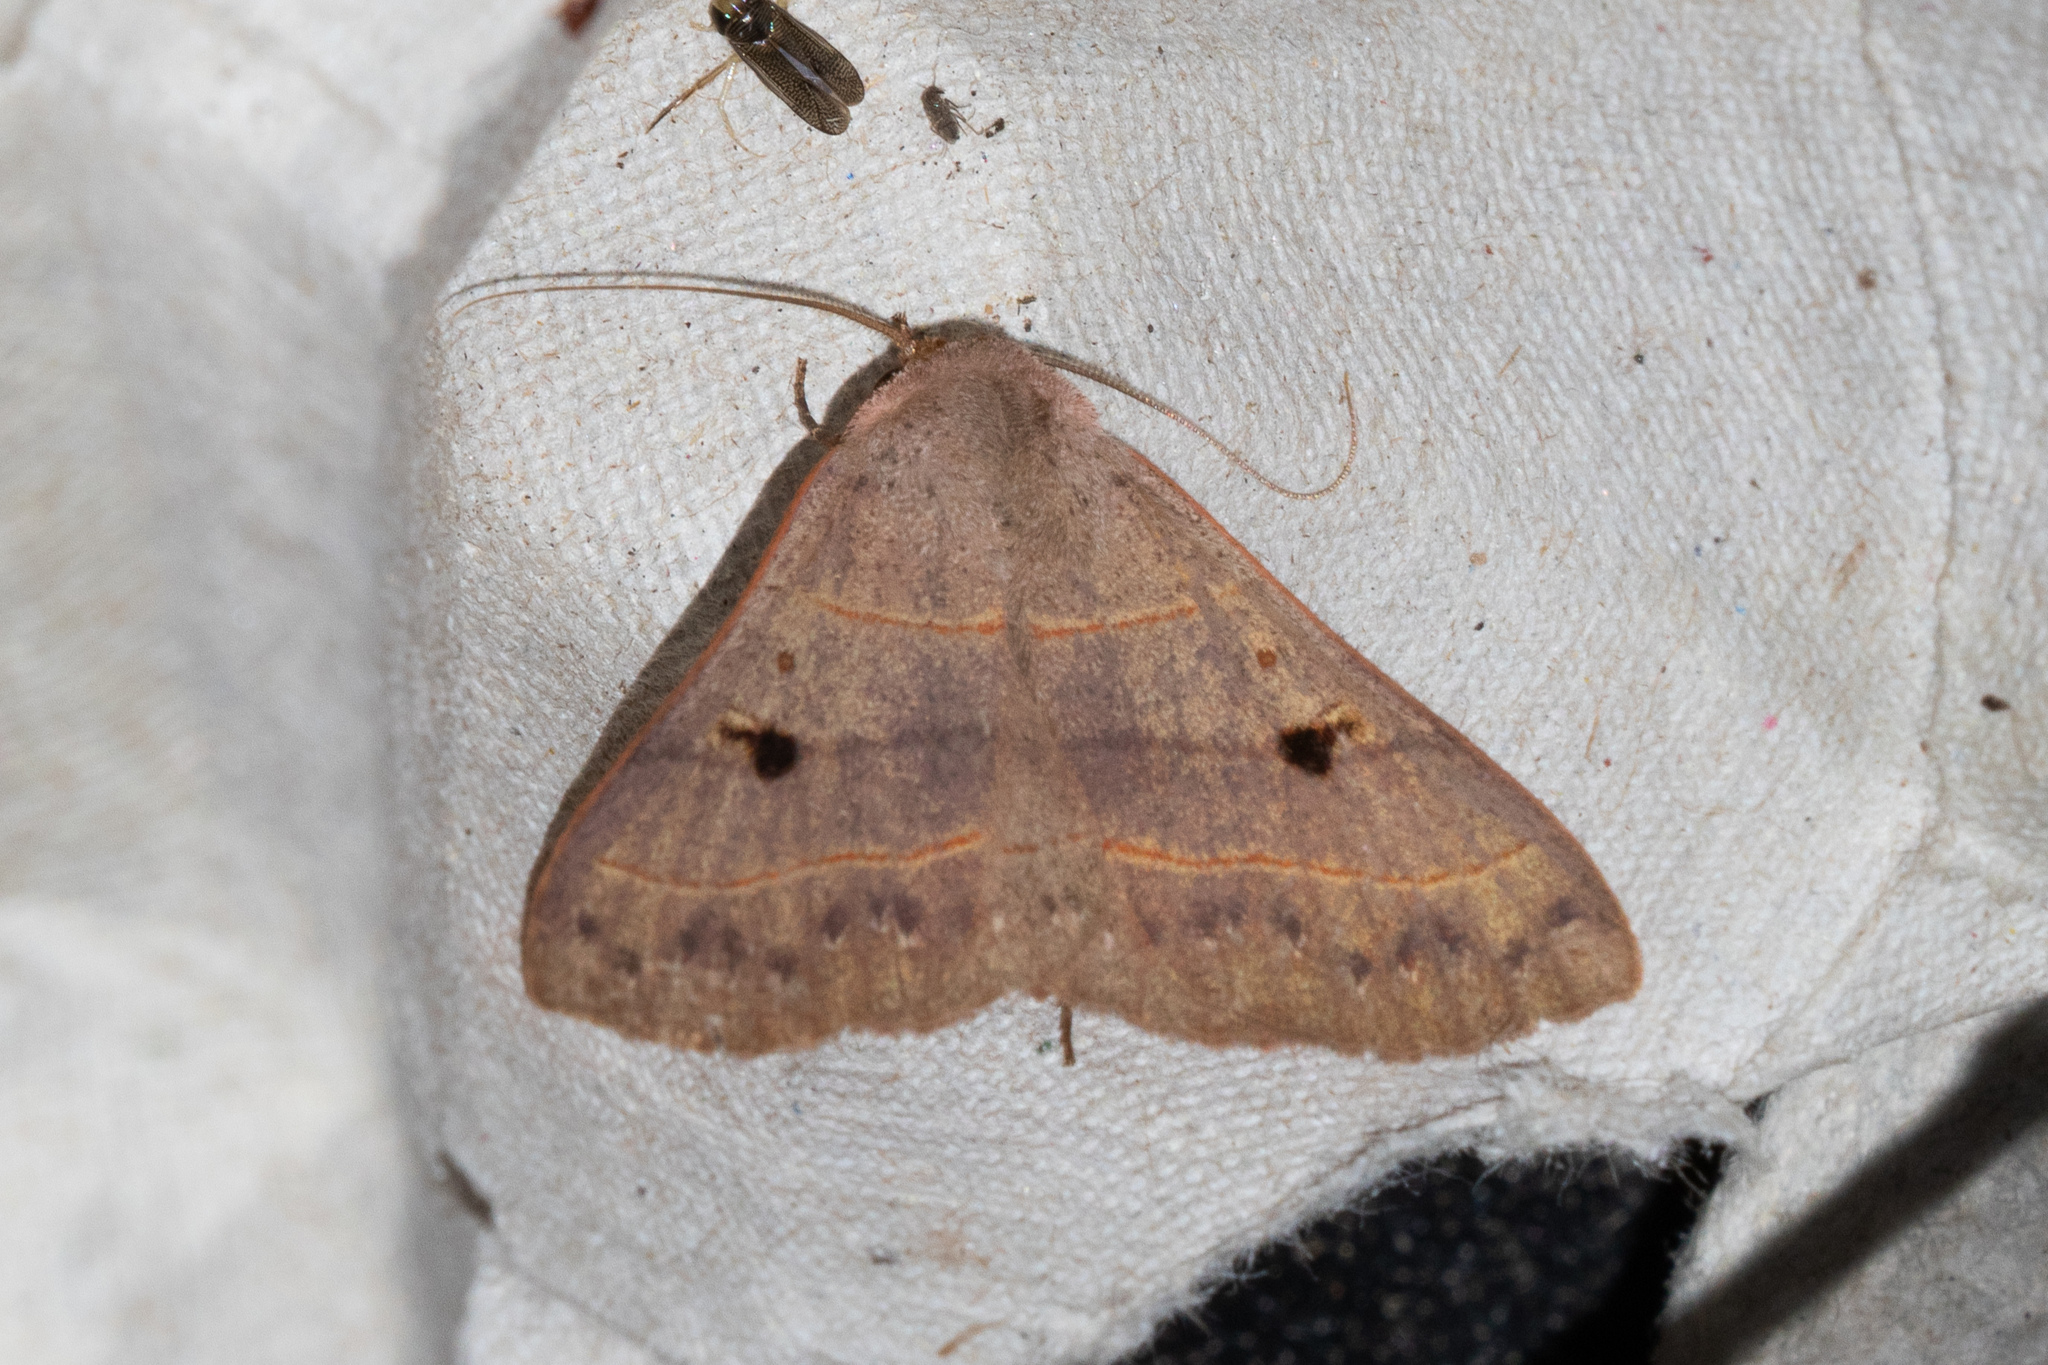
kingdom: Animalia
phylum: Arthropoda
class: Insecta
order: Lepidoptera
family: Erebidae
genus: Panopoda
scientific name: Panopoda rufimargo
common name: Red-lined panopoda moth
